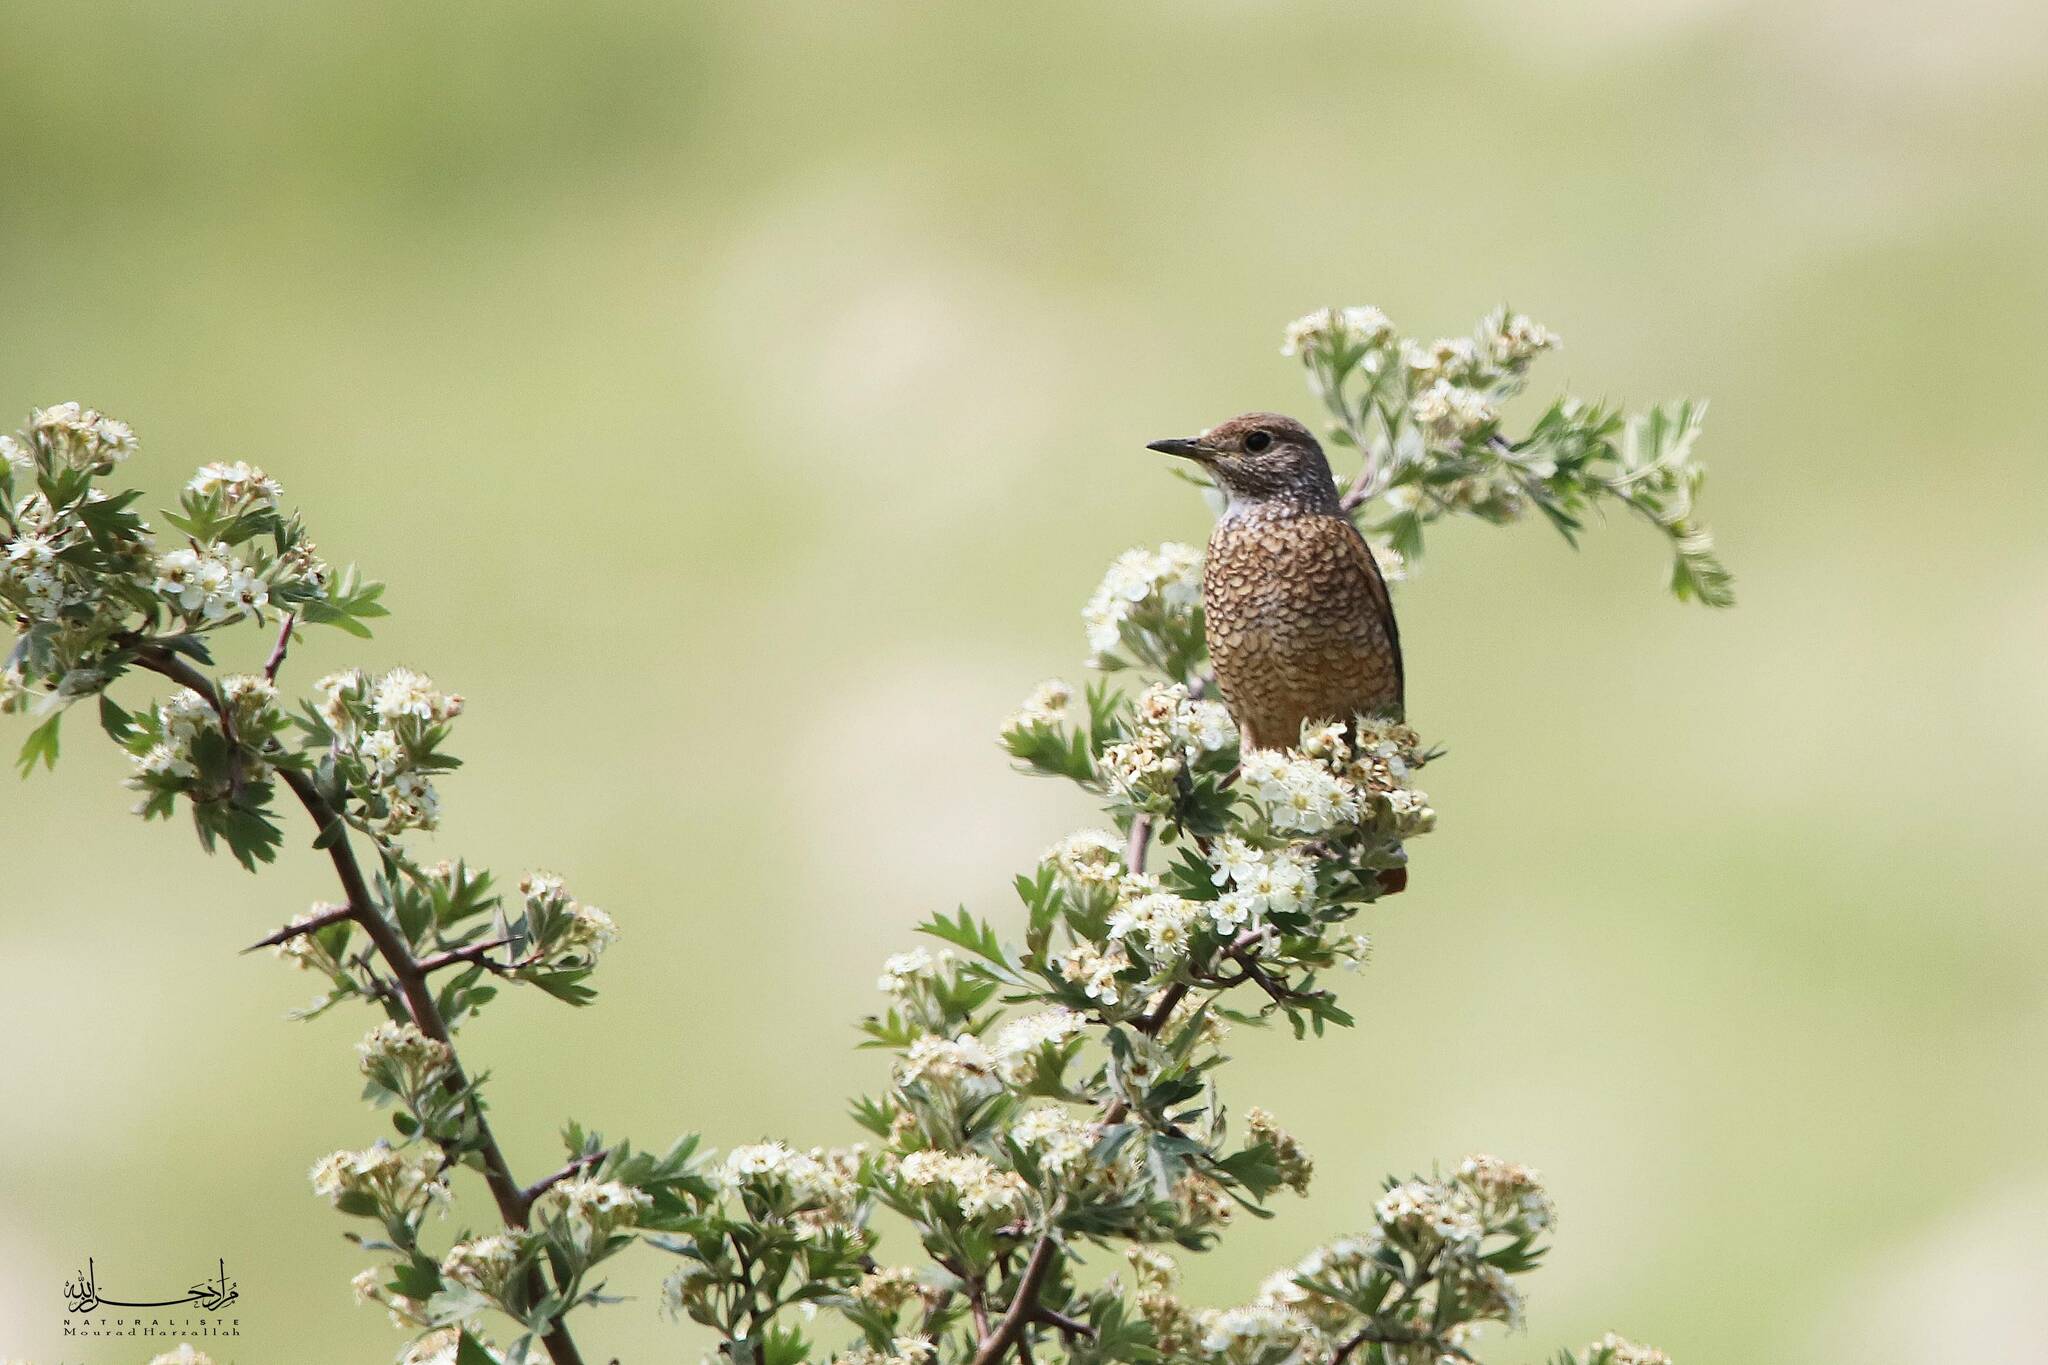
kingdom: Animalia
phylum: Chordata
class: Aves
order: Passeriformes
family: Muscicapidae
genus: Monticola
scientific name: Monticola saxatilis
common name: Rufous-tailed rock thrush
